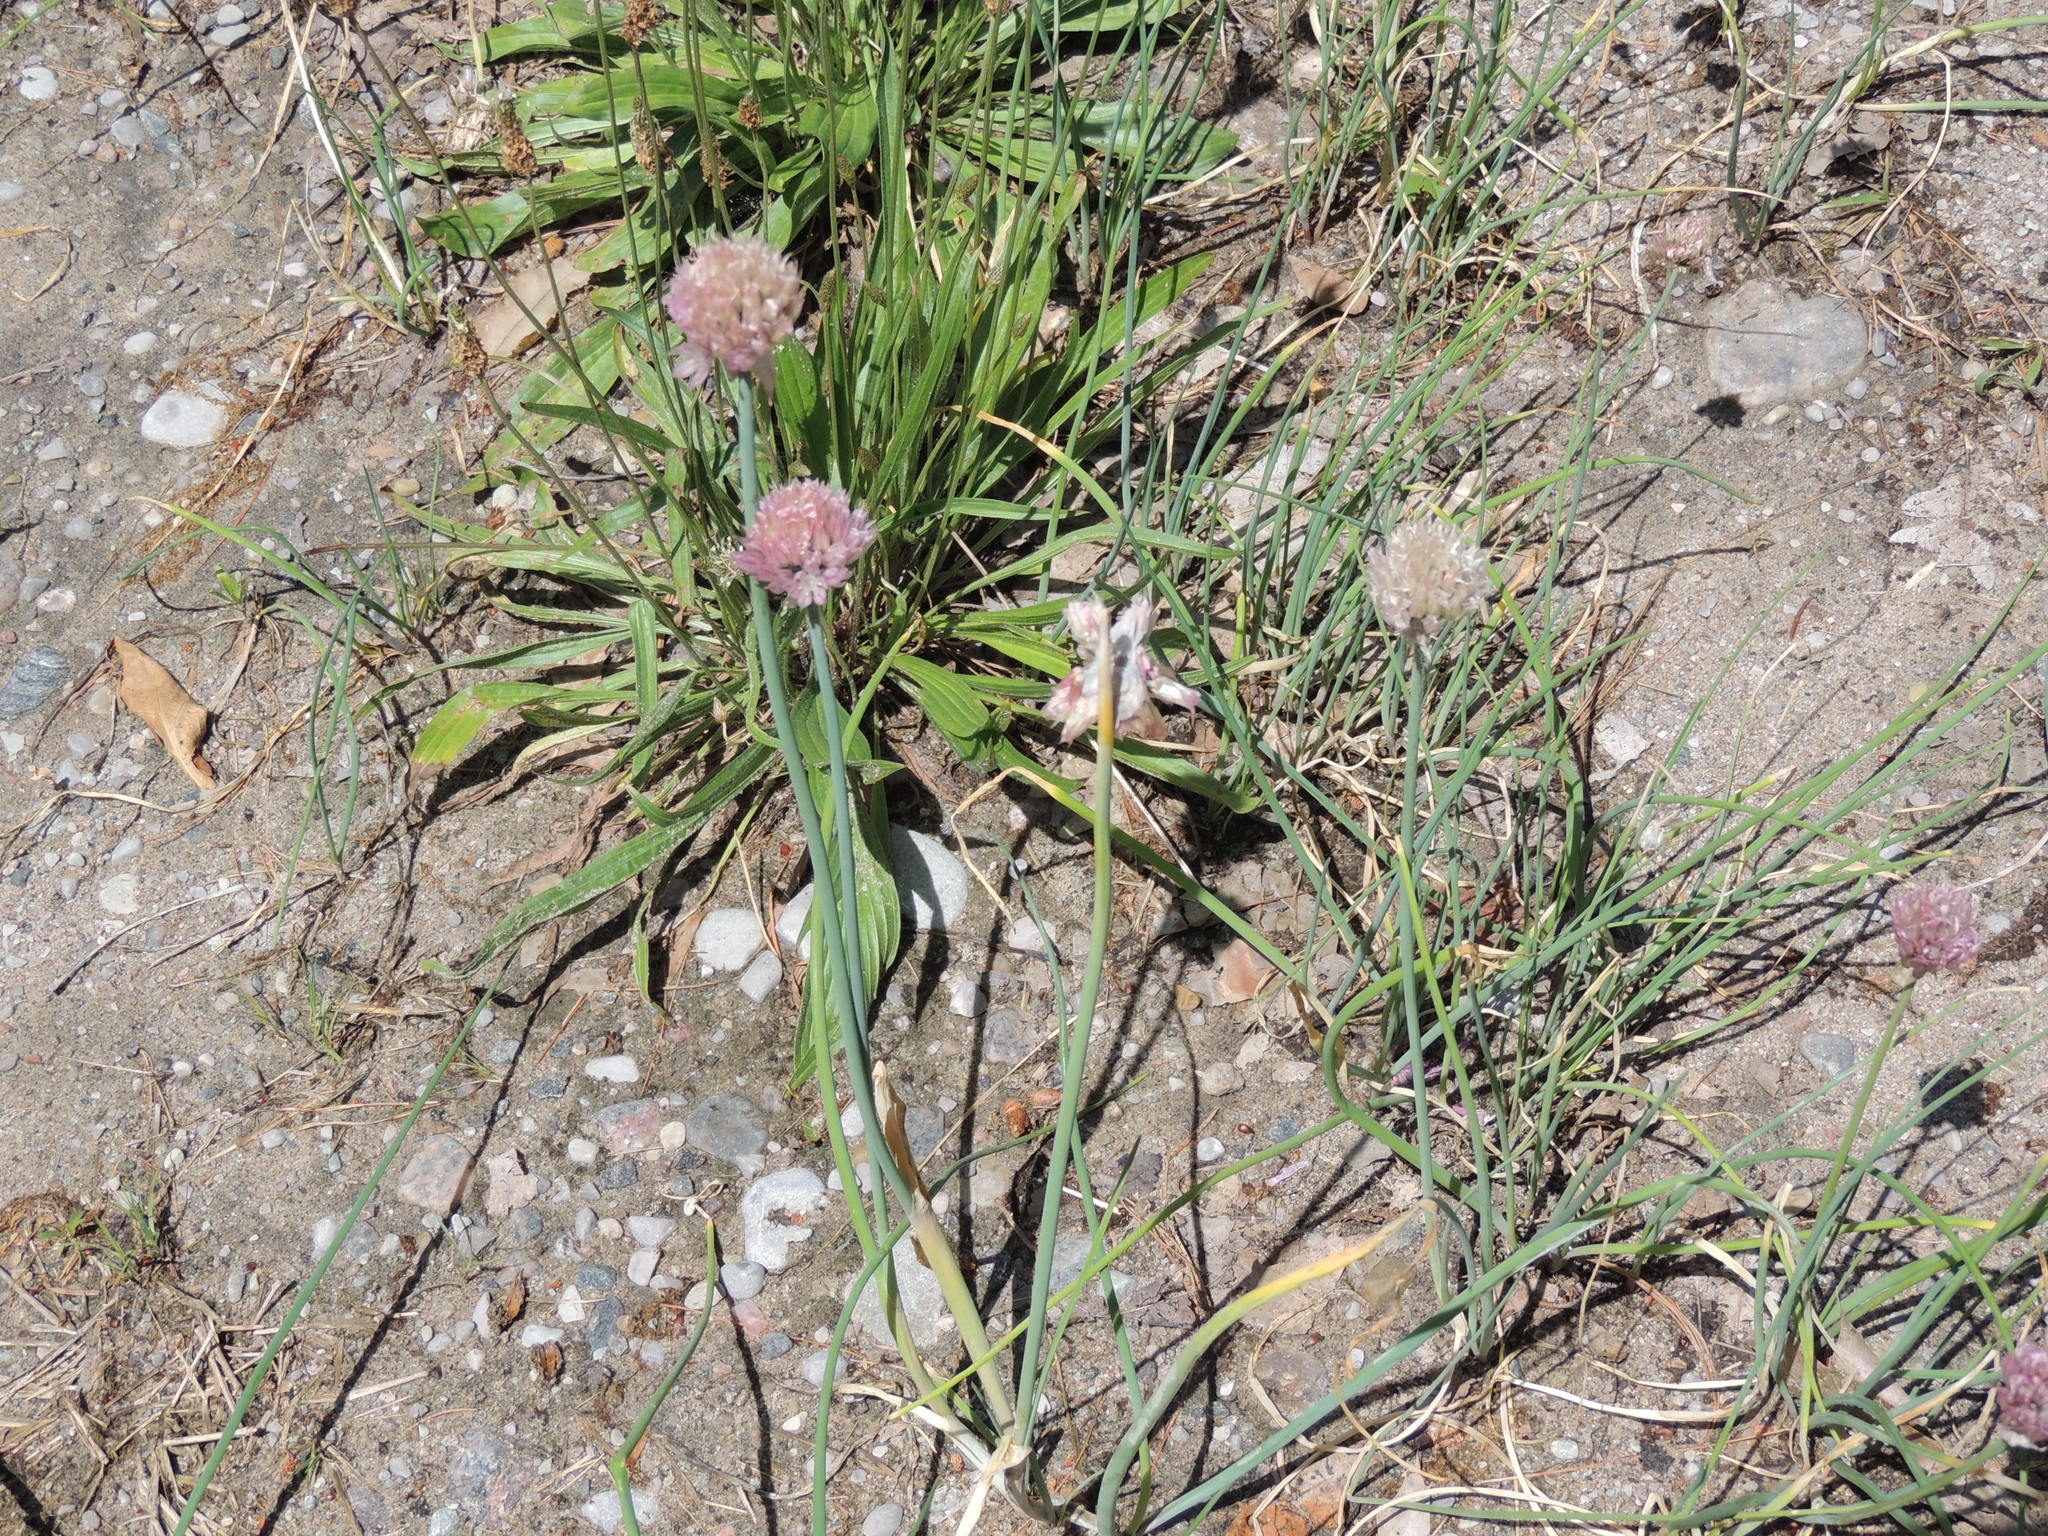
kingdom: Plantae
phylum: Tracheophyta
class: Liliopsida
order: Asparagales
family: Amaryllidaceae
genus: Allium
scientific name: Allium schoenoprasum
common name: Chives
